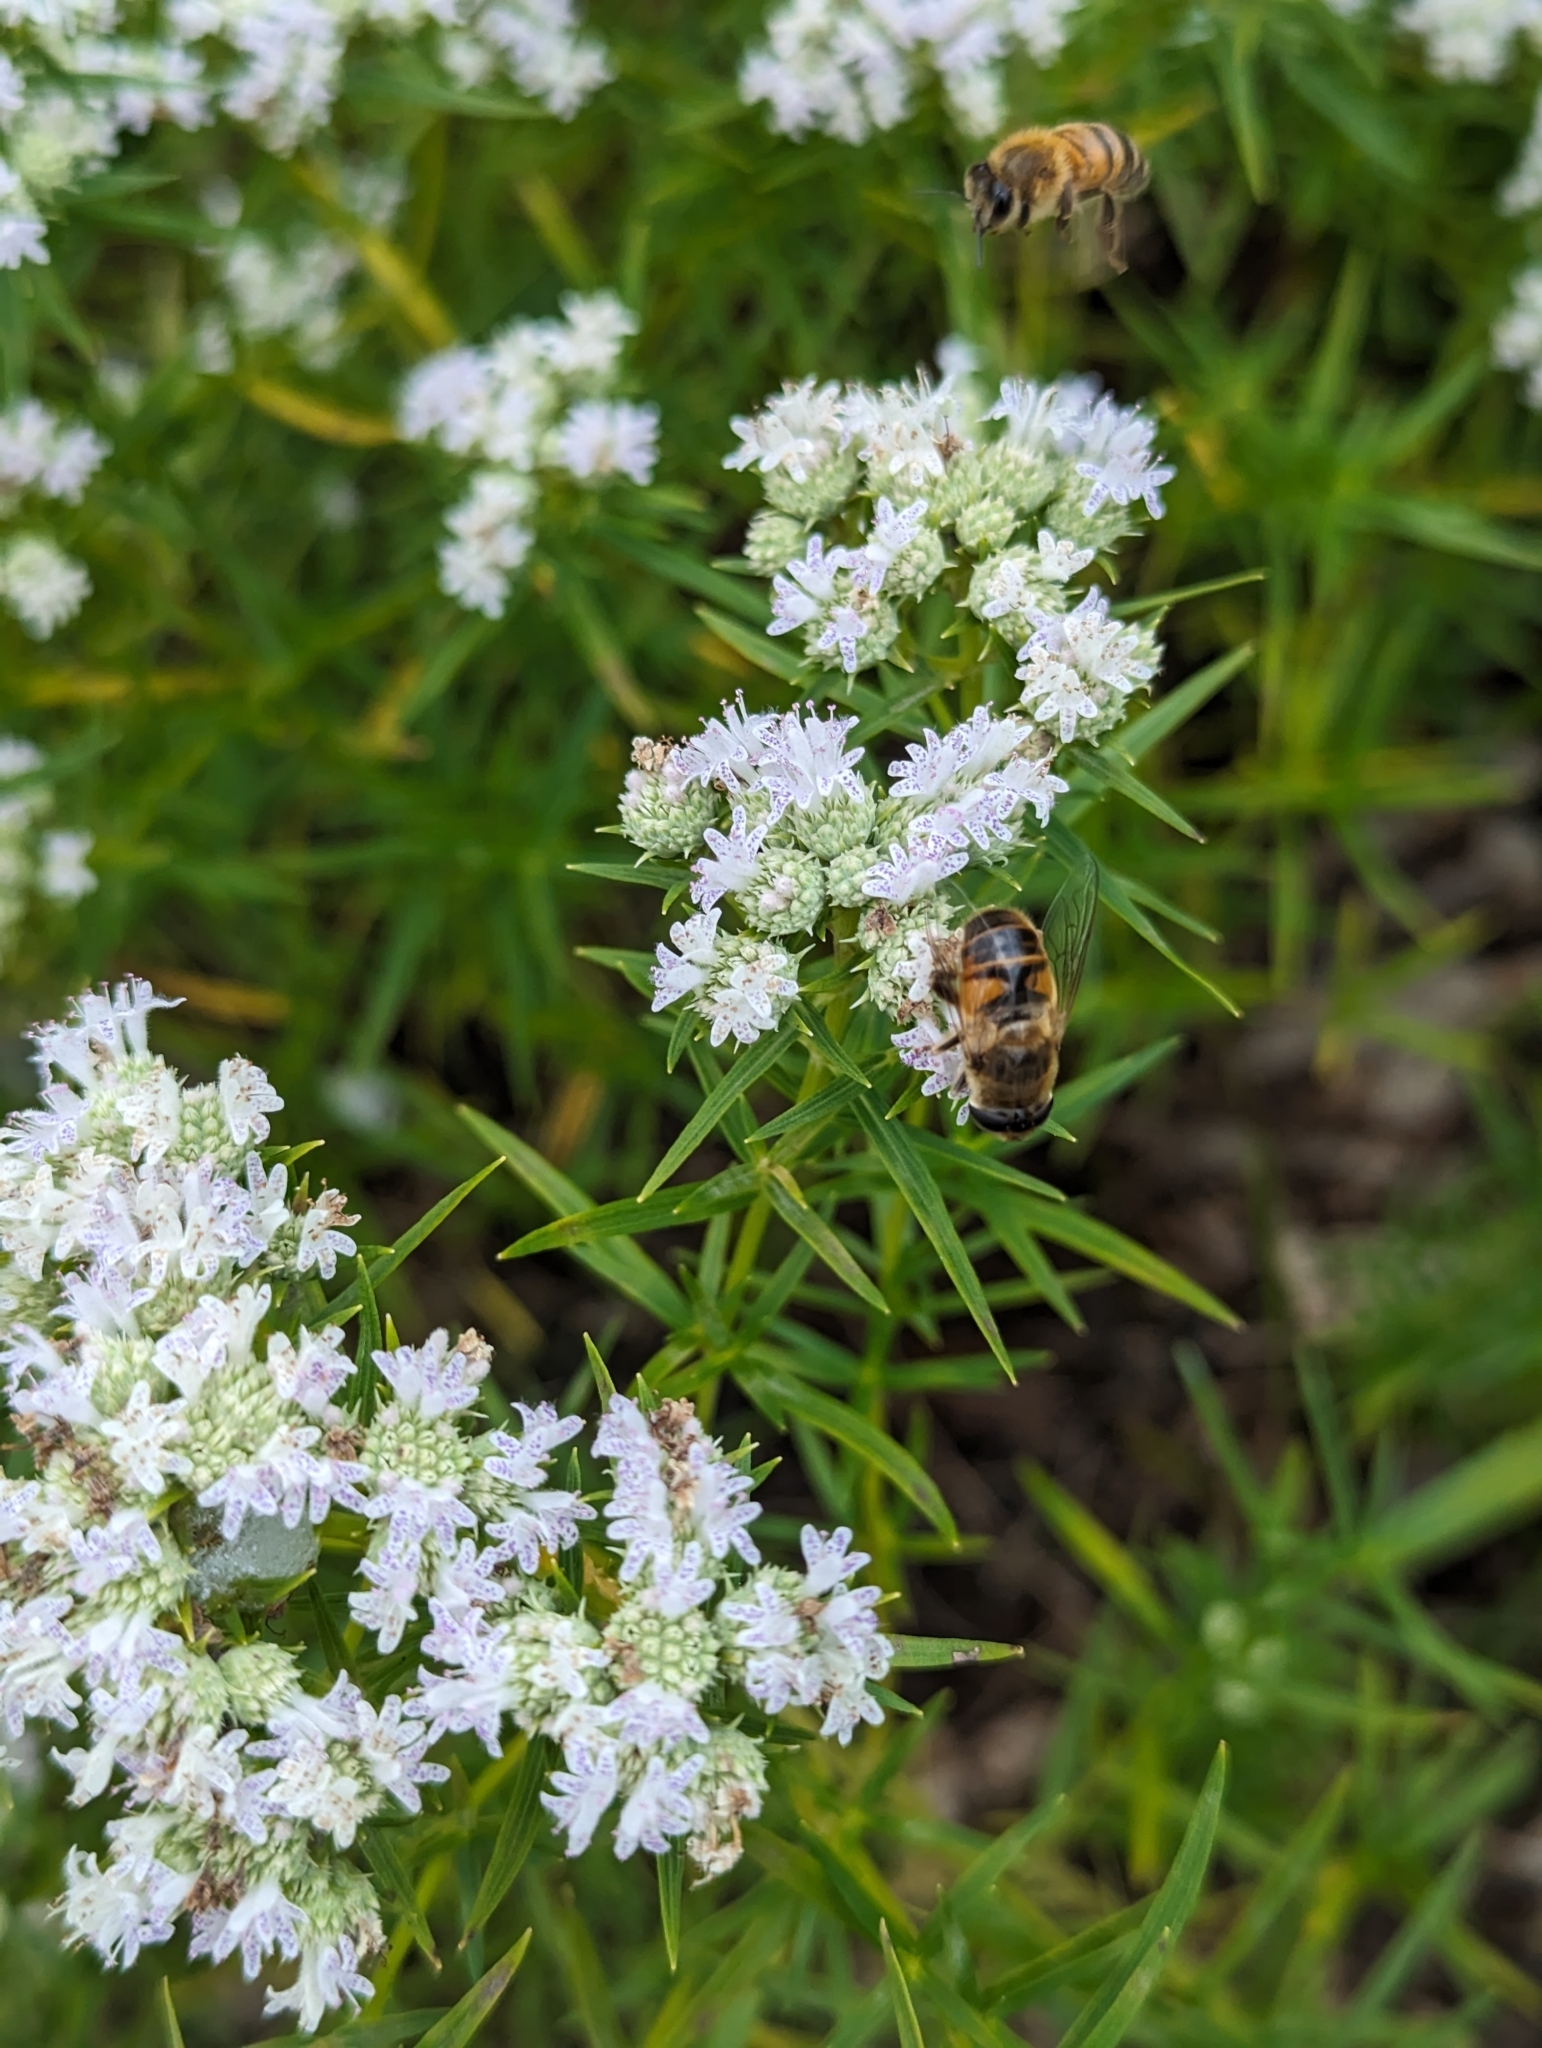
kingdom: Animalia
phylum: Arthropoda
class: Insecta
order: Diptera
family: Syrphidae
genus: Eristalis
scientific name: Eristalis tenax
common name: Drone fly
